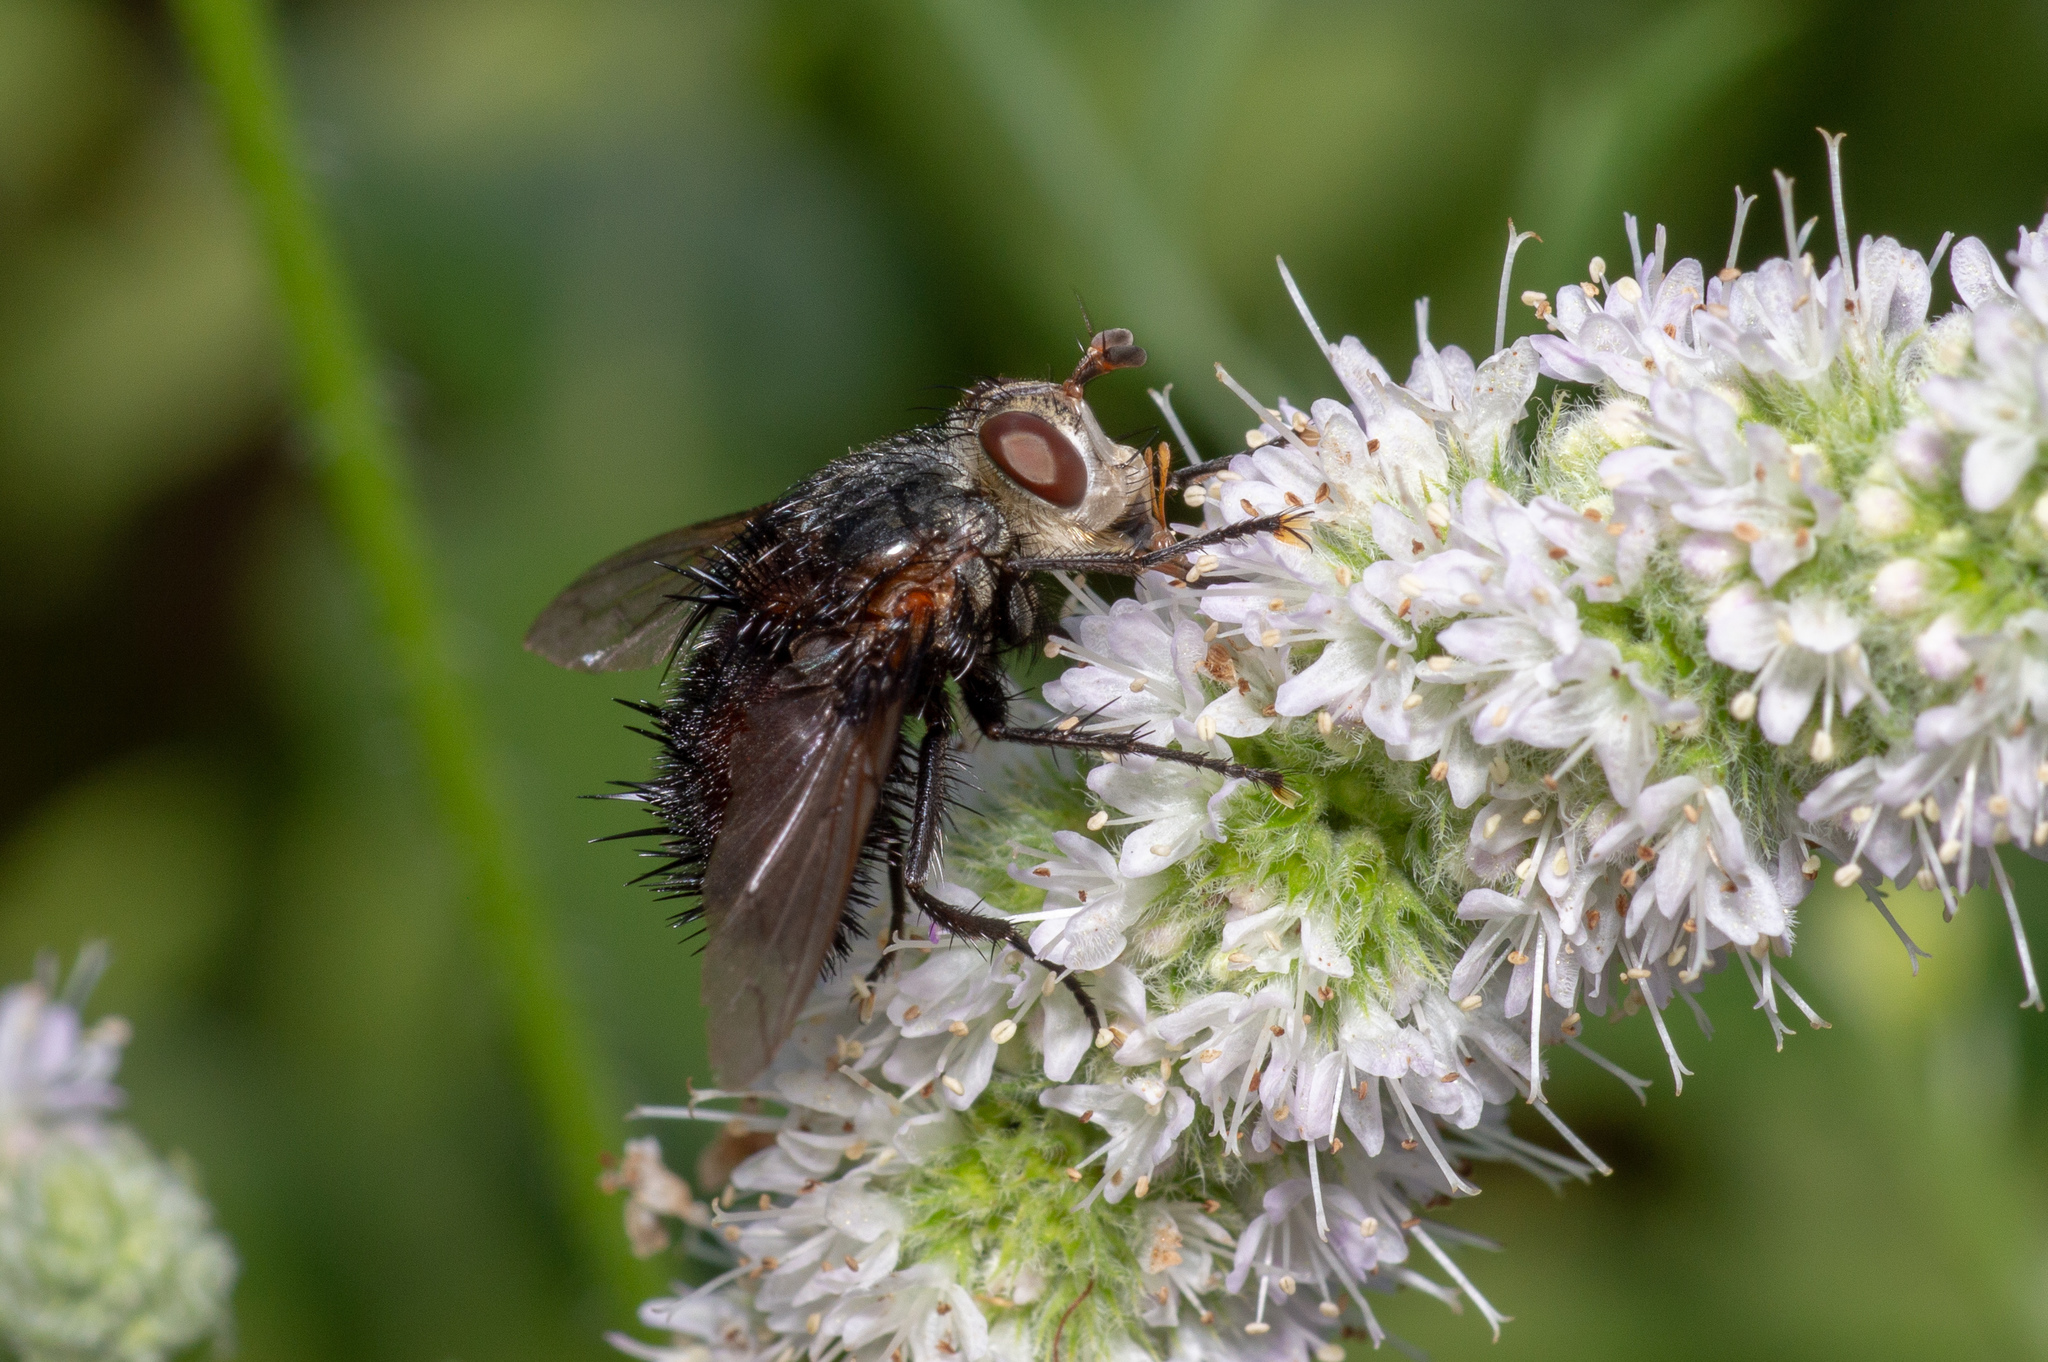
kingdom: Animalia
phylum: Arthropoda
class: Insecta
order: Diptera
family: Tachinidae
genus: Juriniopsis
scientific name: Juriniopsis adusta
